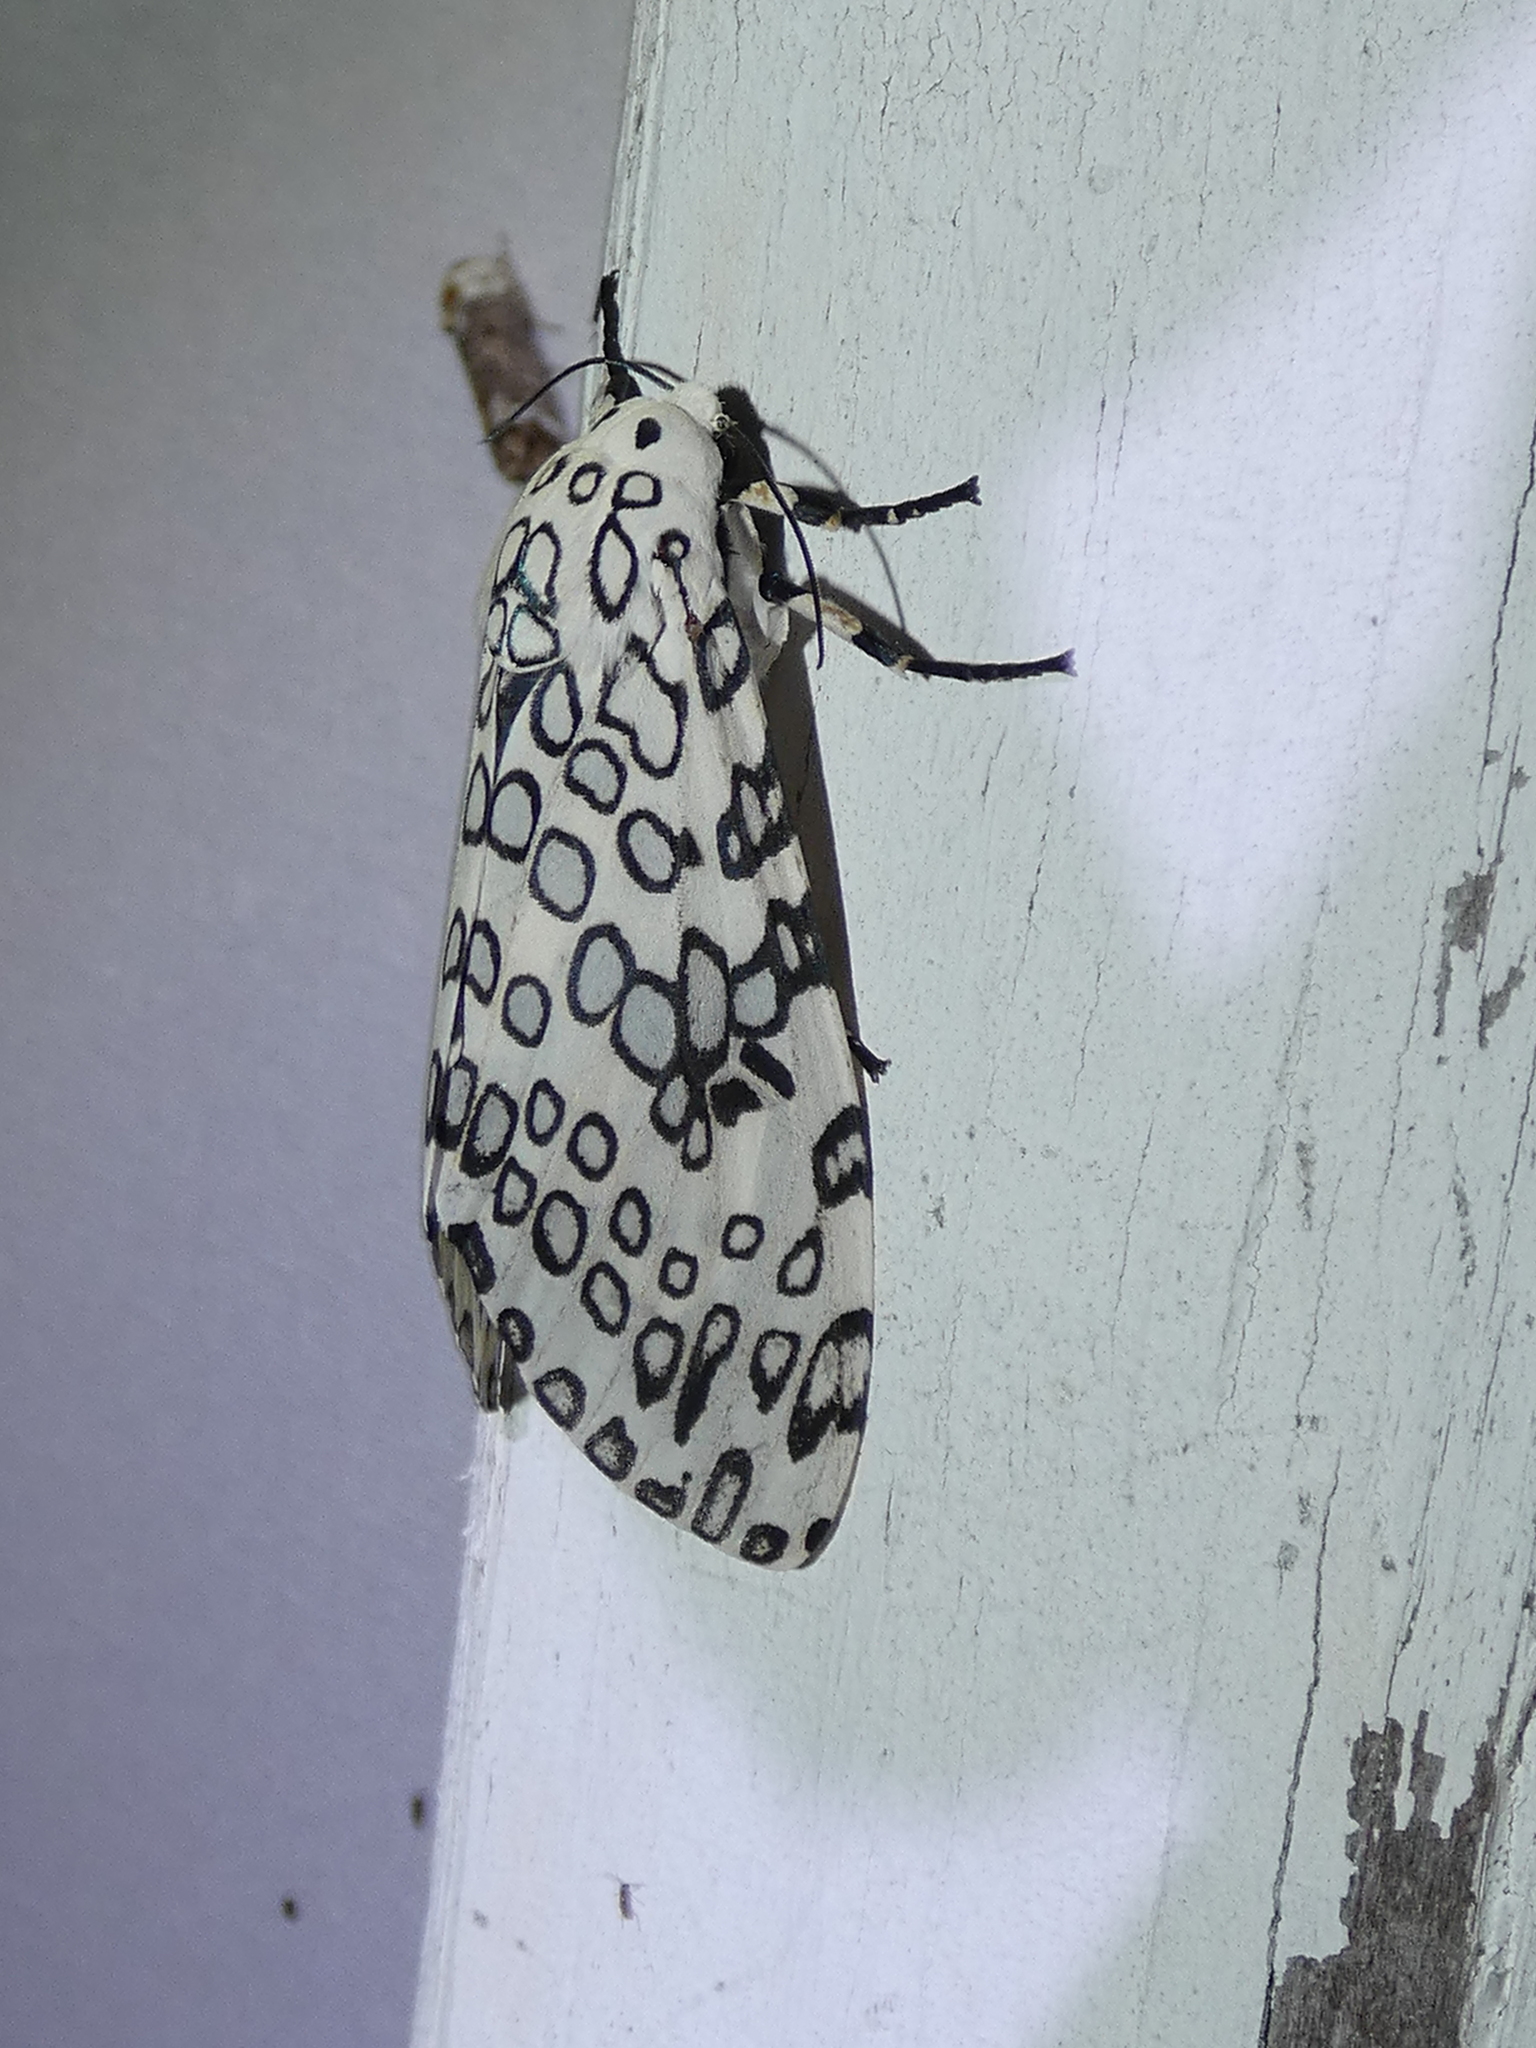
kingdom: Animalia
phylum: Arthropoda
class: Insecta
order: Lepidoptera
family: Erebidae
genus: Hypercompe
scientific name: Hypercompe scribonia
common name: Giant leopard moth
